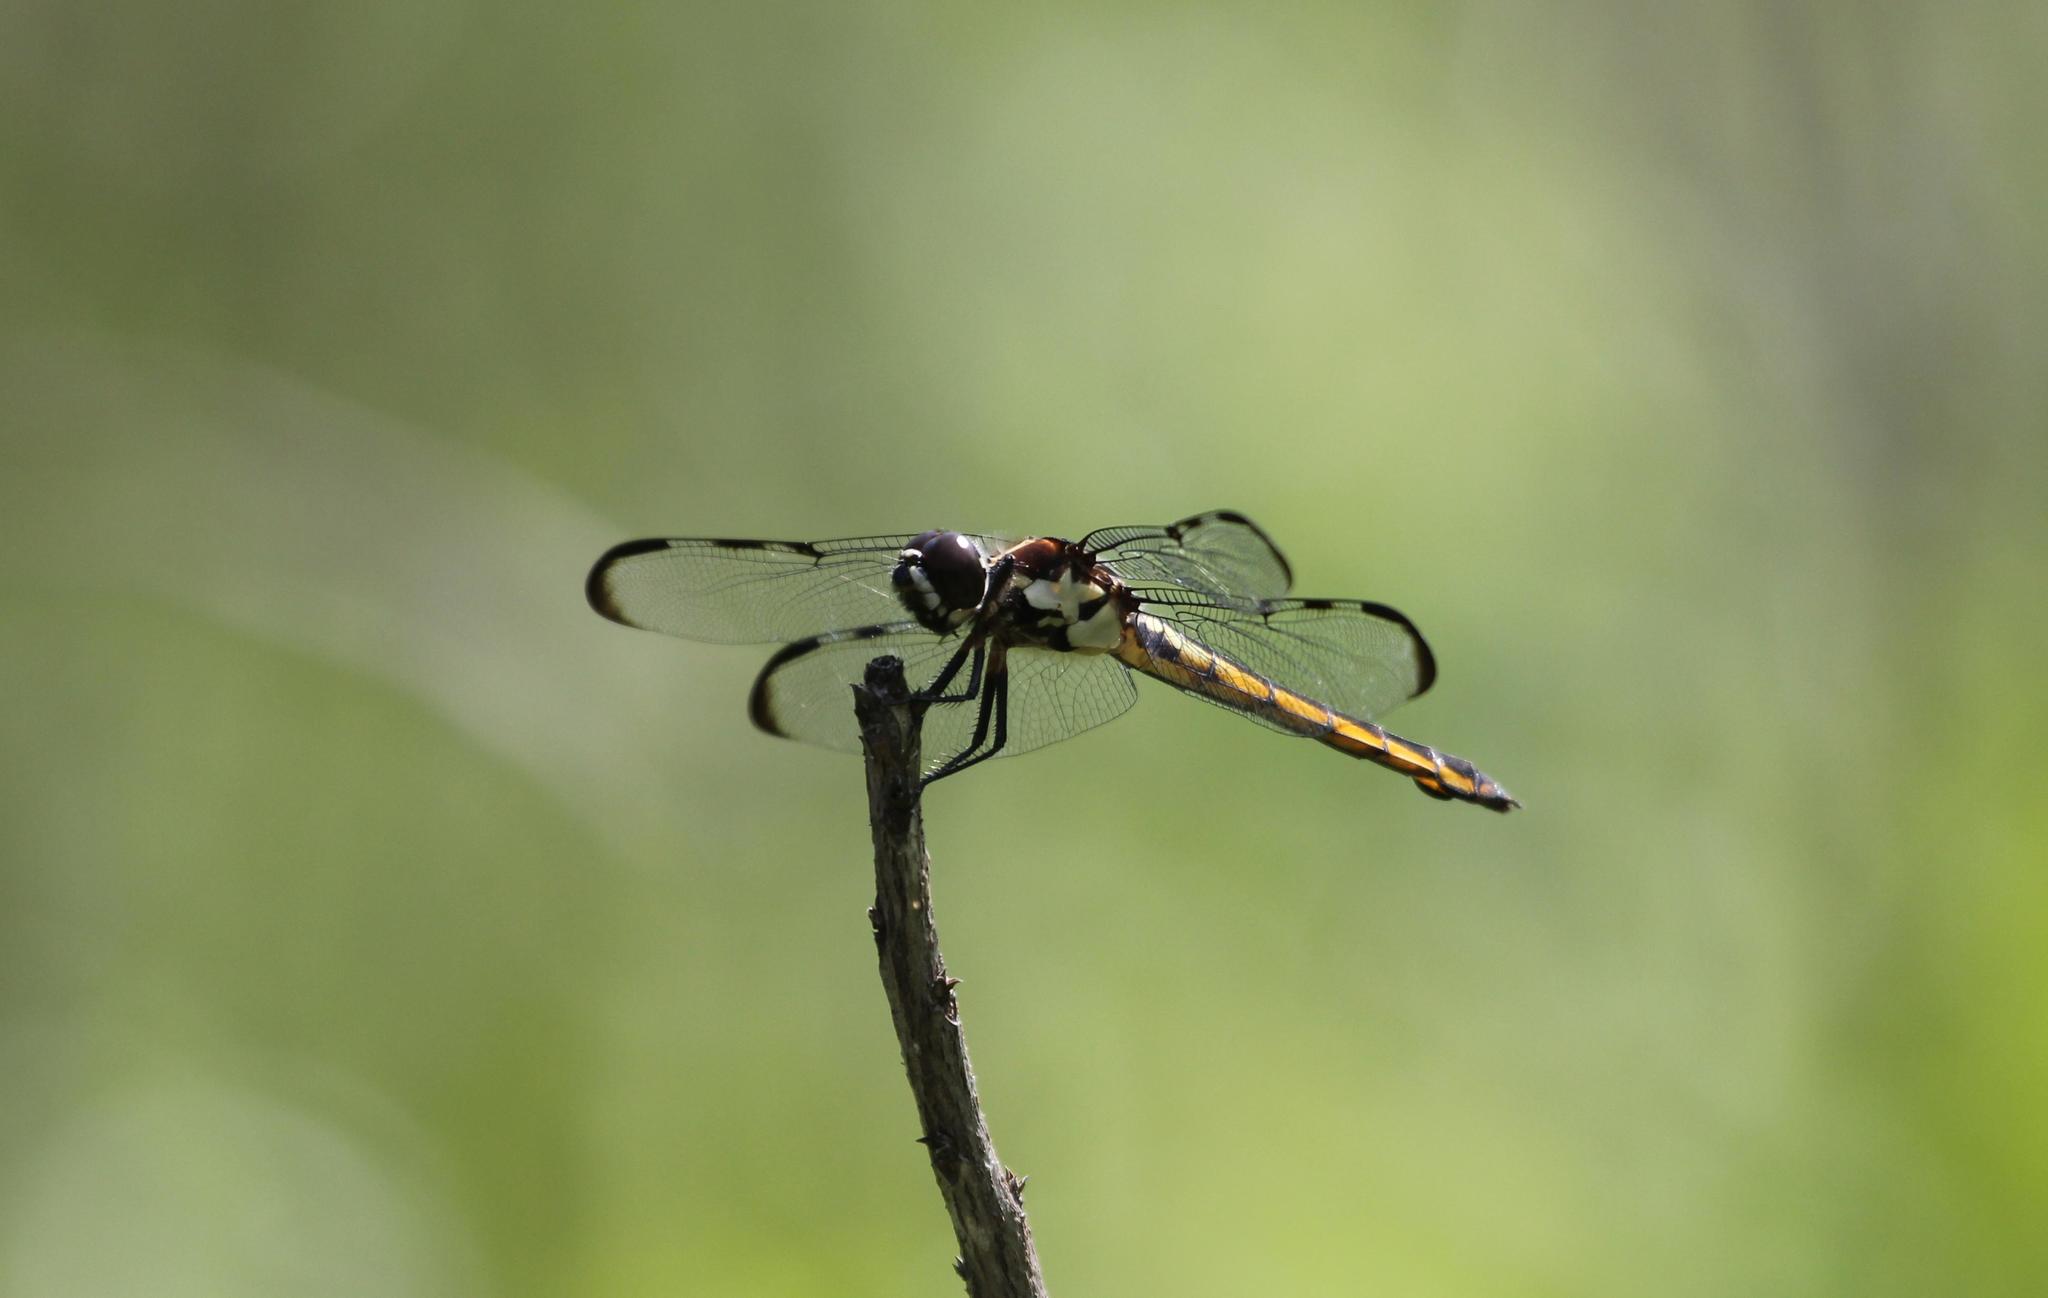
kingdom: Animalia
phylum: Arthropoda
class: Insecta
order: Odonata
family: Libellulidae
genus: Libellula
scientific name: Libellula axilena
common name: Bar-winged skimmer
